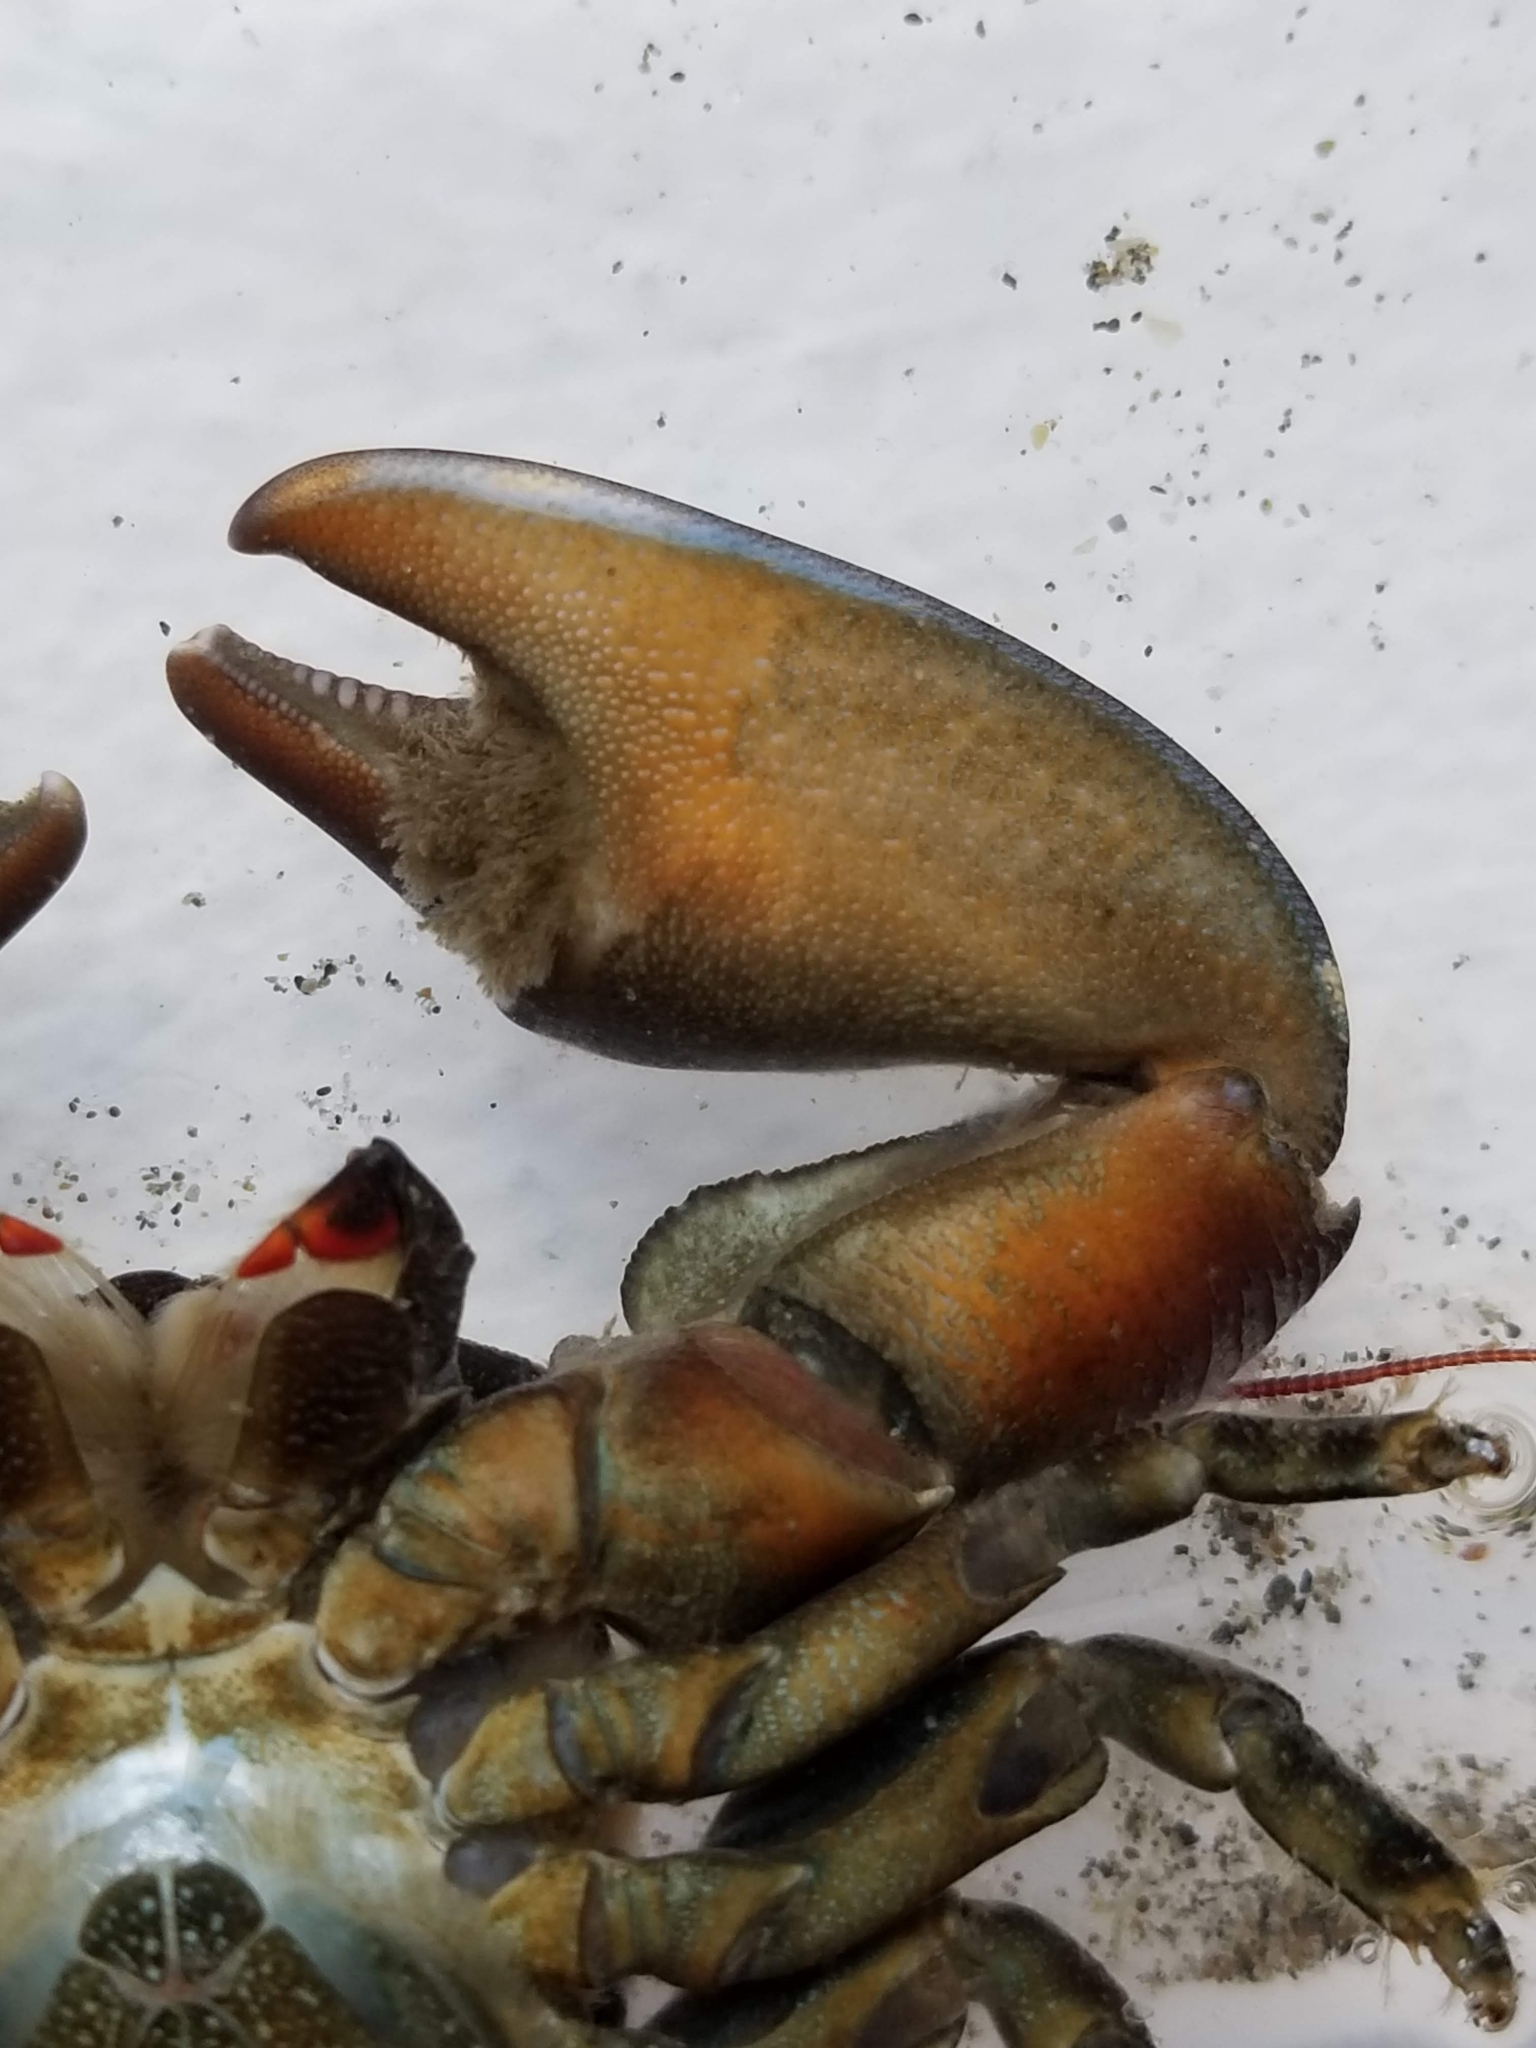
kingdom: Animalia
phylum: Arthropoda
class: Malacostraca
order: Decapoda
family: Porcellanidae
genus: Petrolisthes
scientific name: Petrolisthes cinctipes
